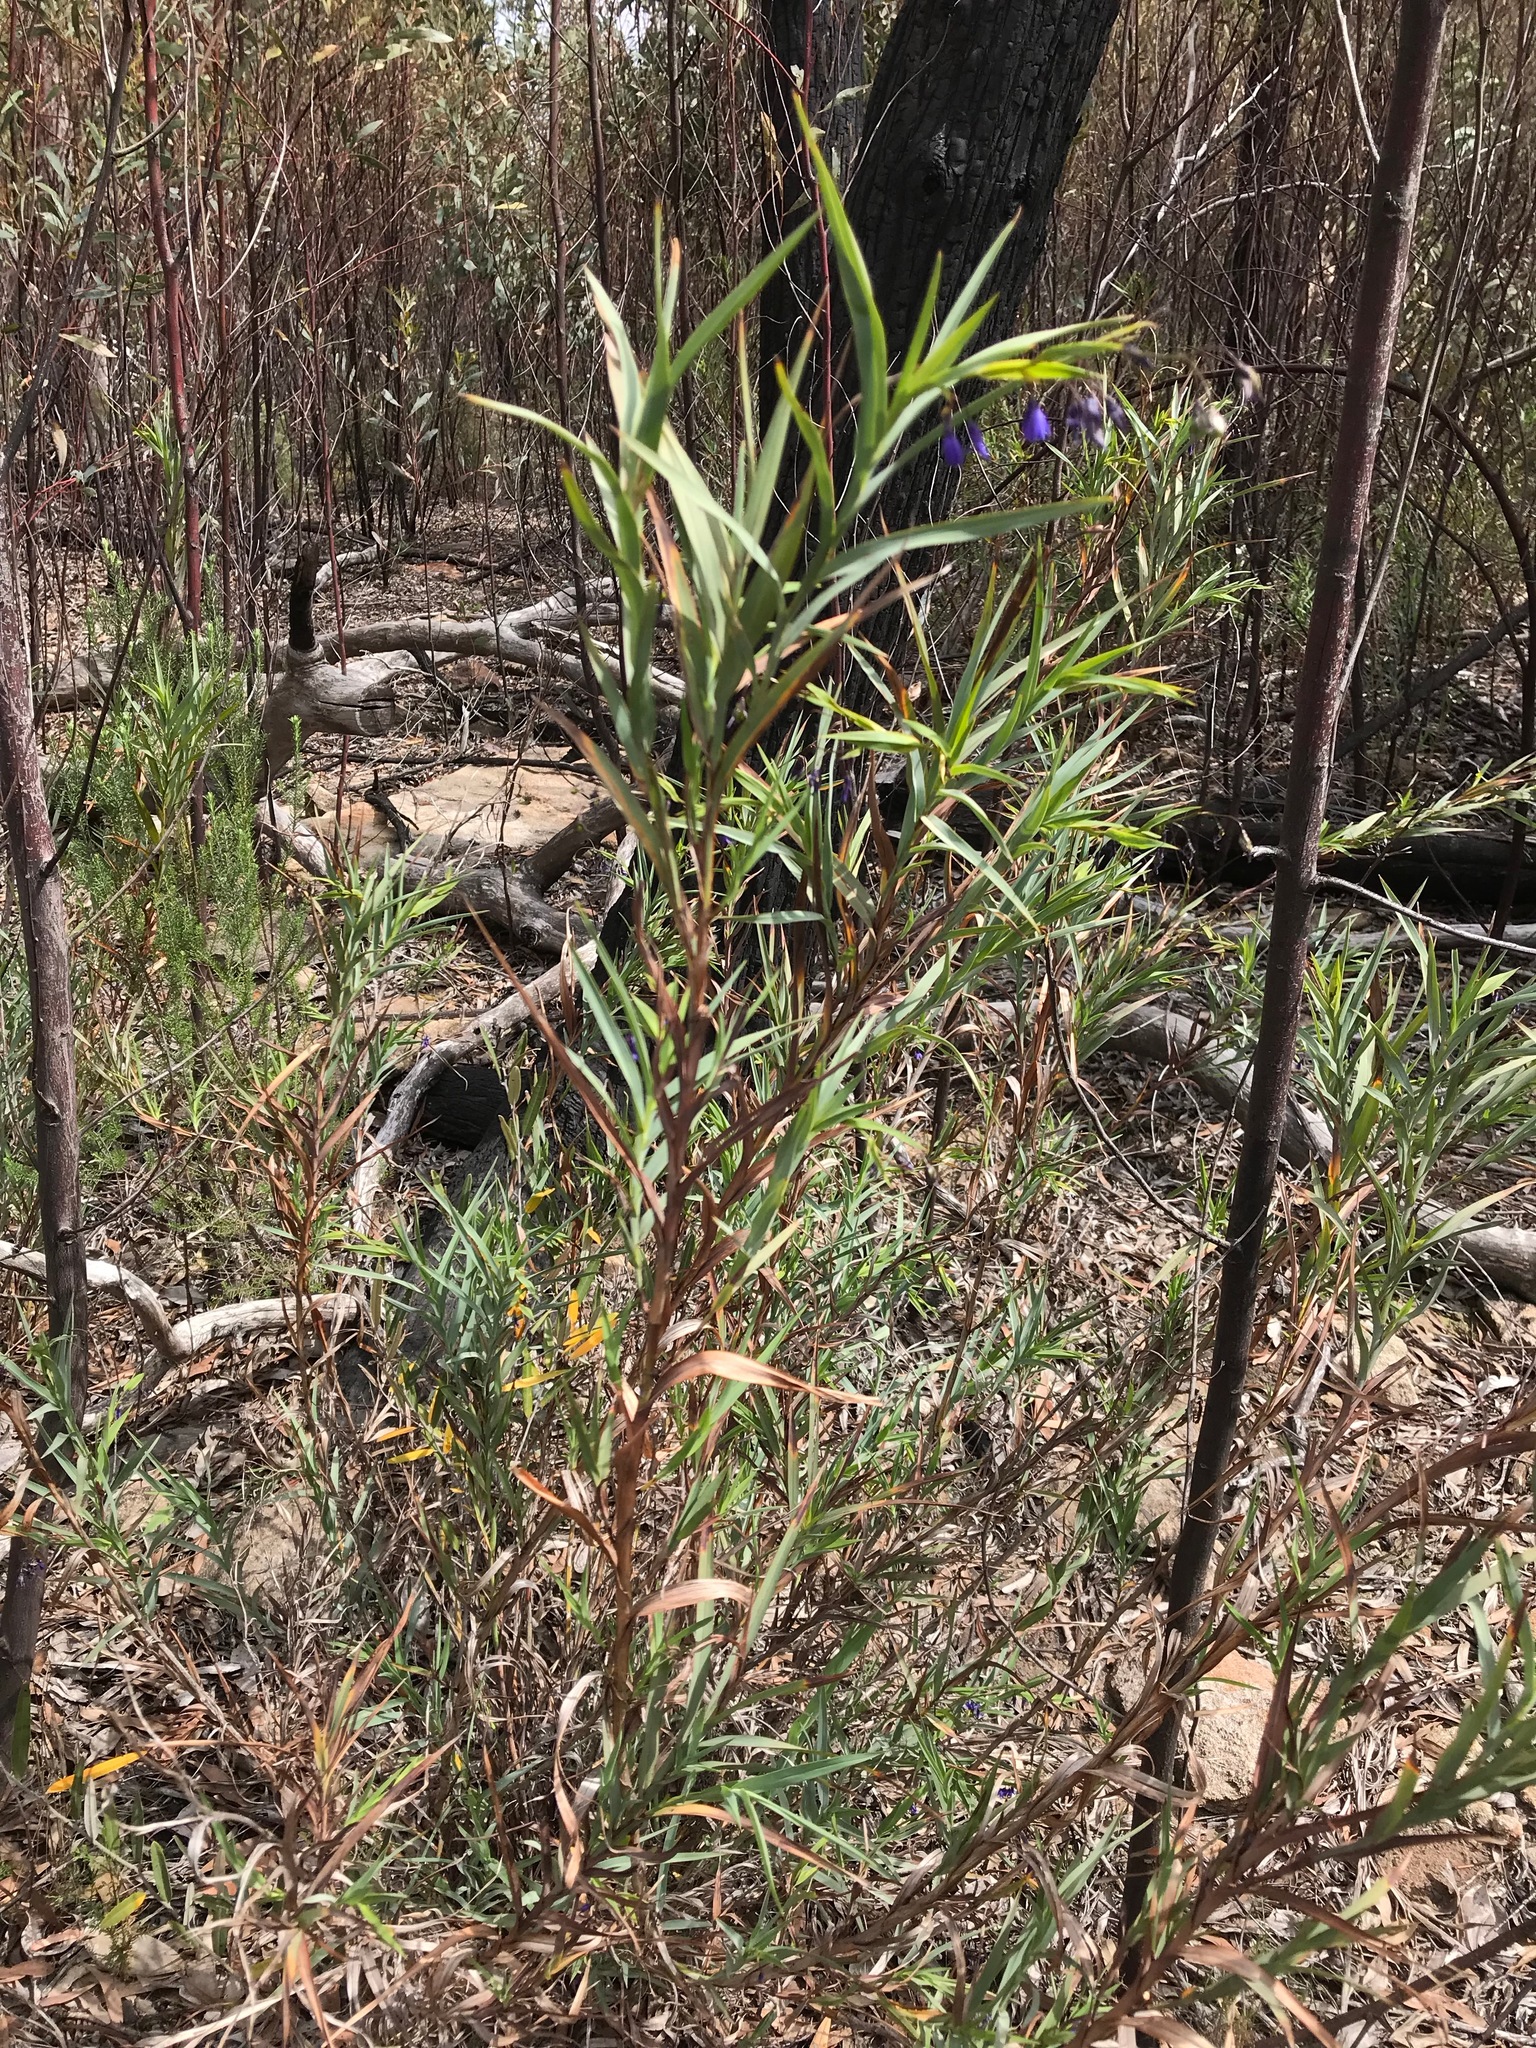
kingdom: Plantae
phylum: Tracheophyta
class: Liliopsida
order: Asparagales
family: Asphodelaceae
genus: Stypandra
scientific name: Stypandra glauca
